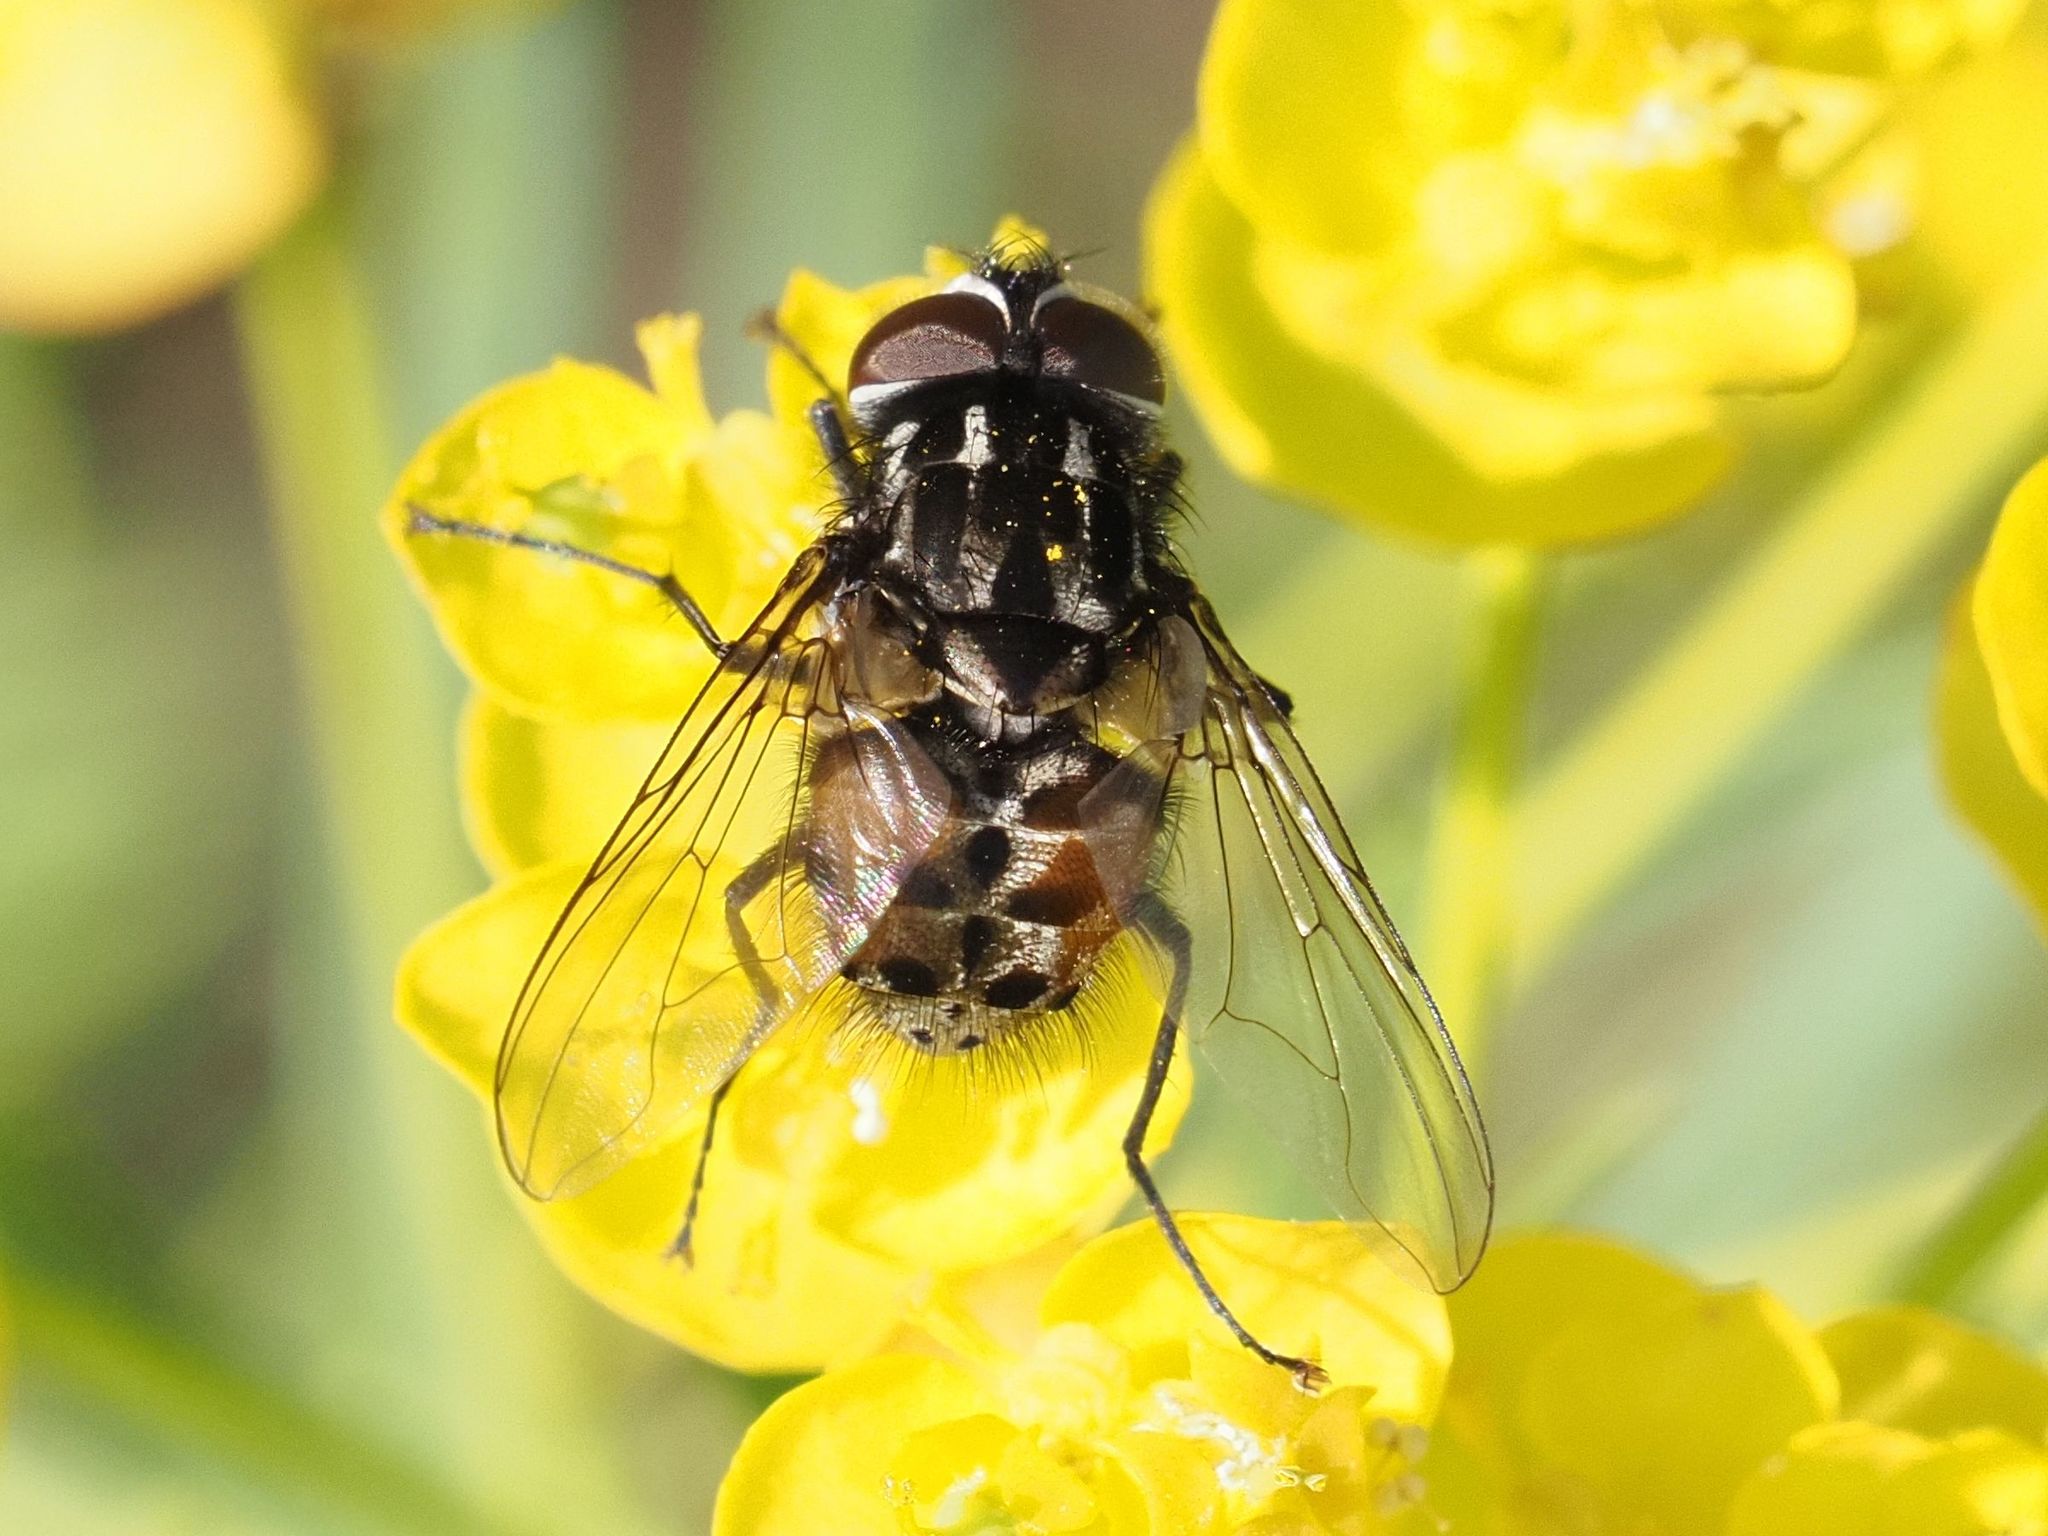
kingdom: Animalia
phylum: Arthropoda
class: Insecta
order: Diptera
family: Muscidae
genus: Graphomya
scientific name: Graphomya maculata
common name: Muscid fly
